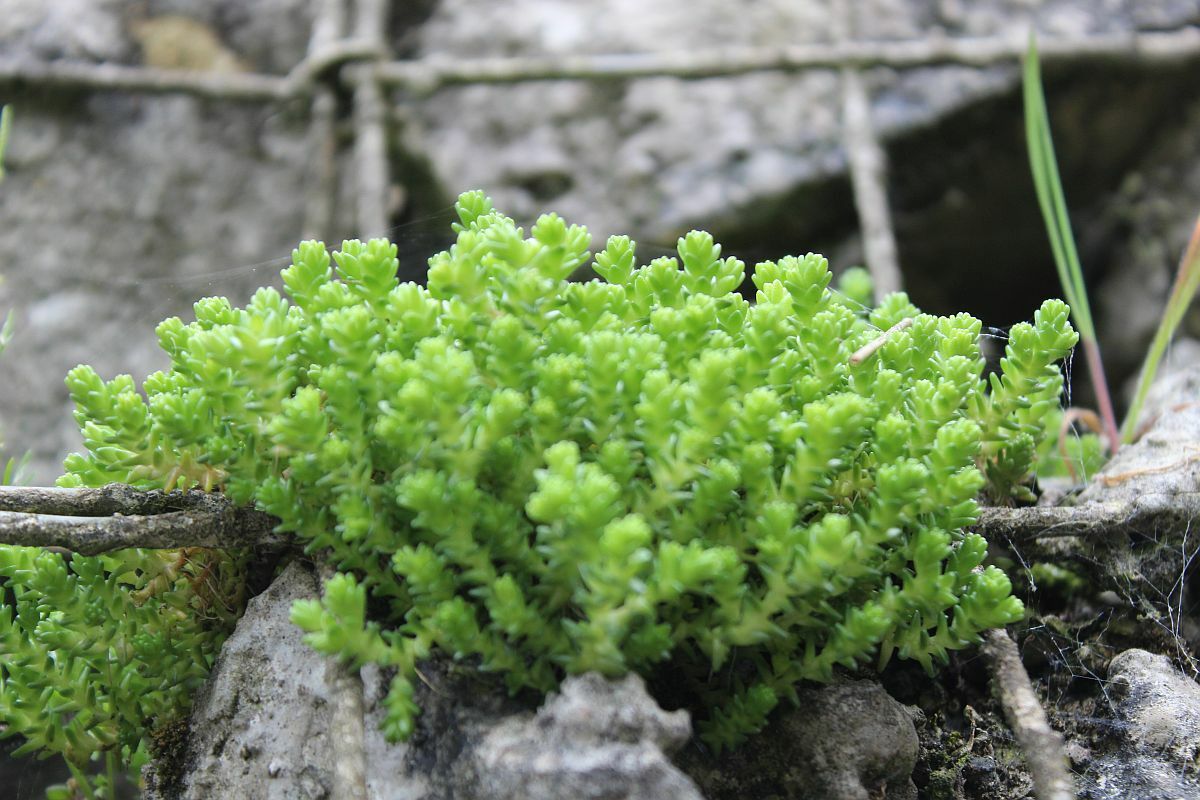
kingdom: Plantae
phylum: Tracheophyta
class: Magnoliopsida
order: Saxifragales
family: Crassulaceae
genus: Sedum
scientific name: Sedum acre
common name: Biting stonecrop
